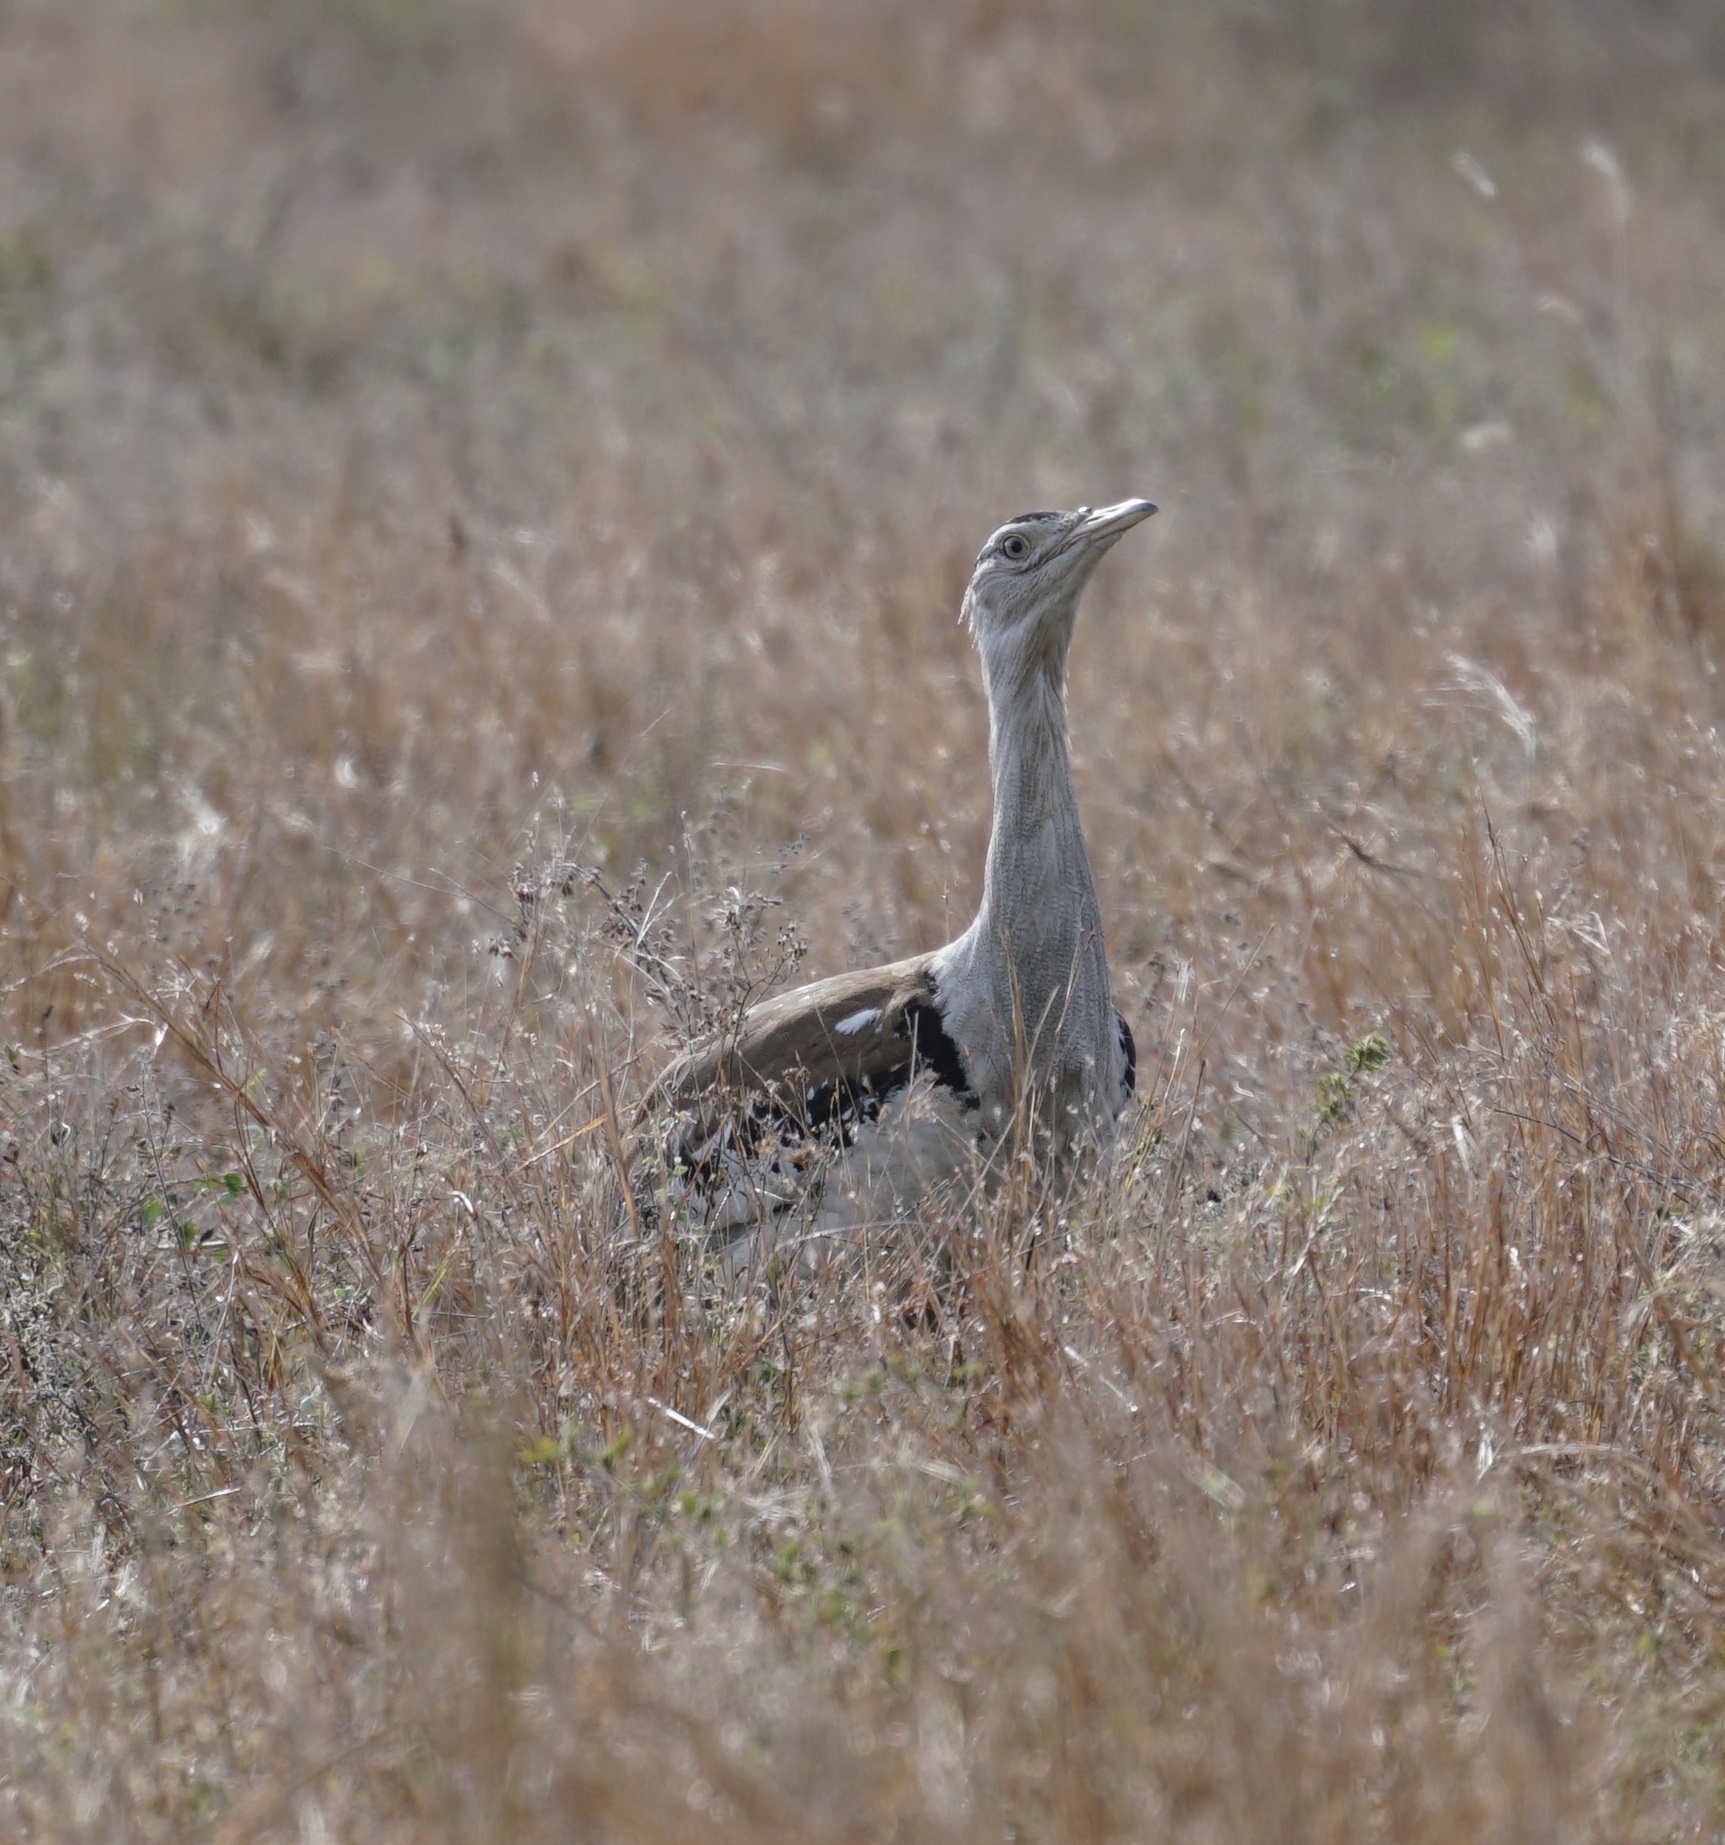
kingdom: Animalia
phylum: Chordata
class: Aves
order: Otidiformes
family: Otididae
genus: Ardeotis
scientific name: Ardeotis australis
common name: Australian bustard
